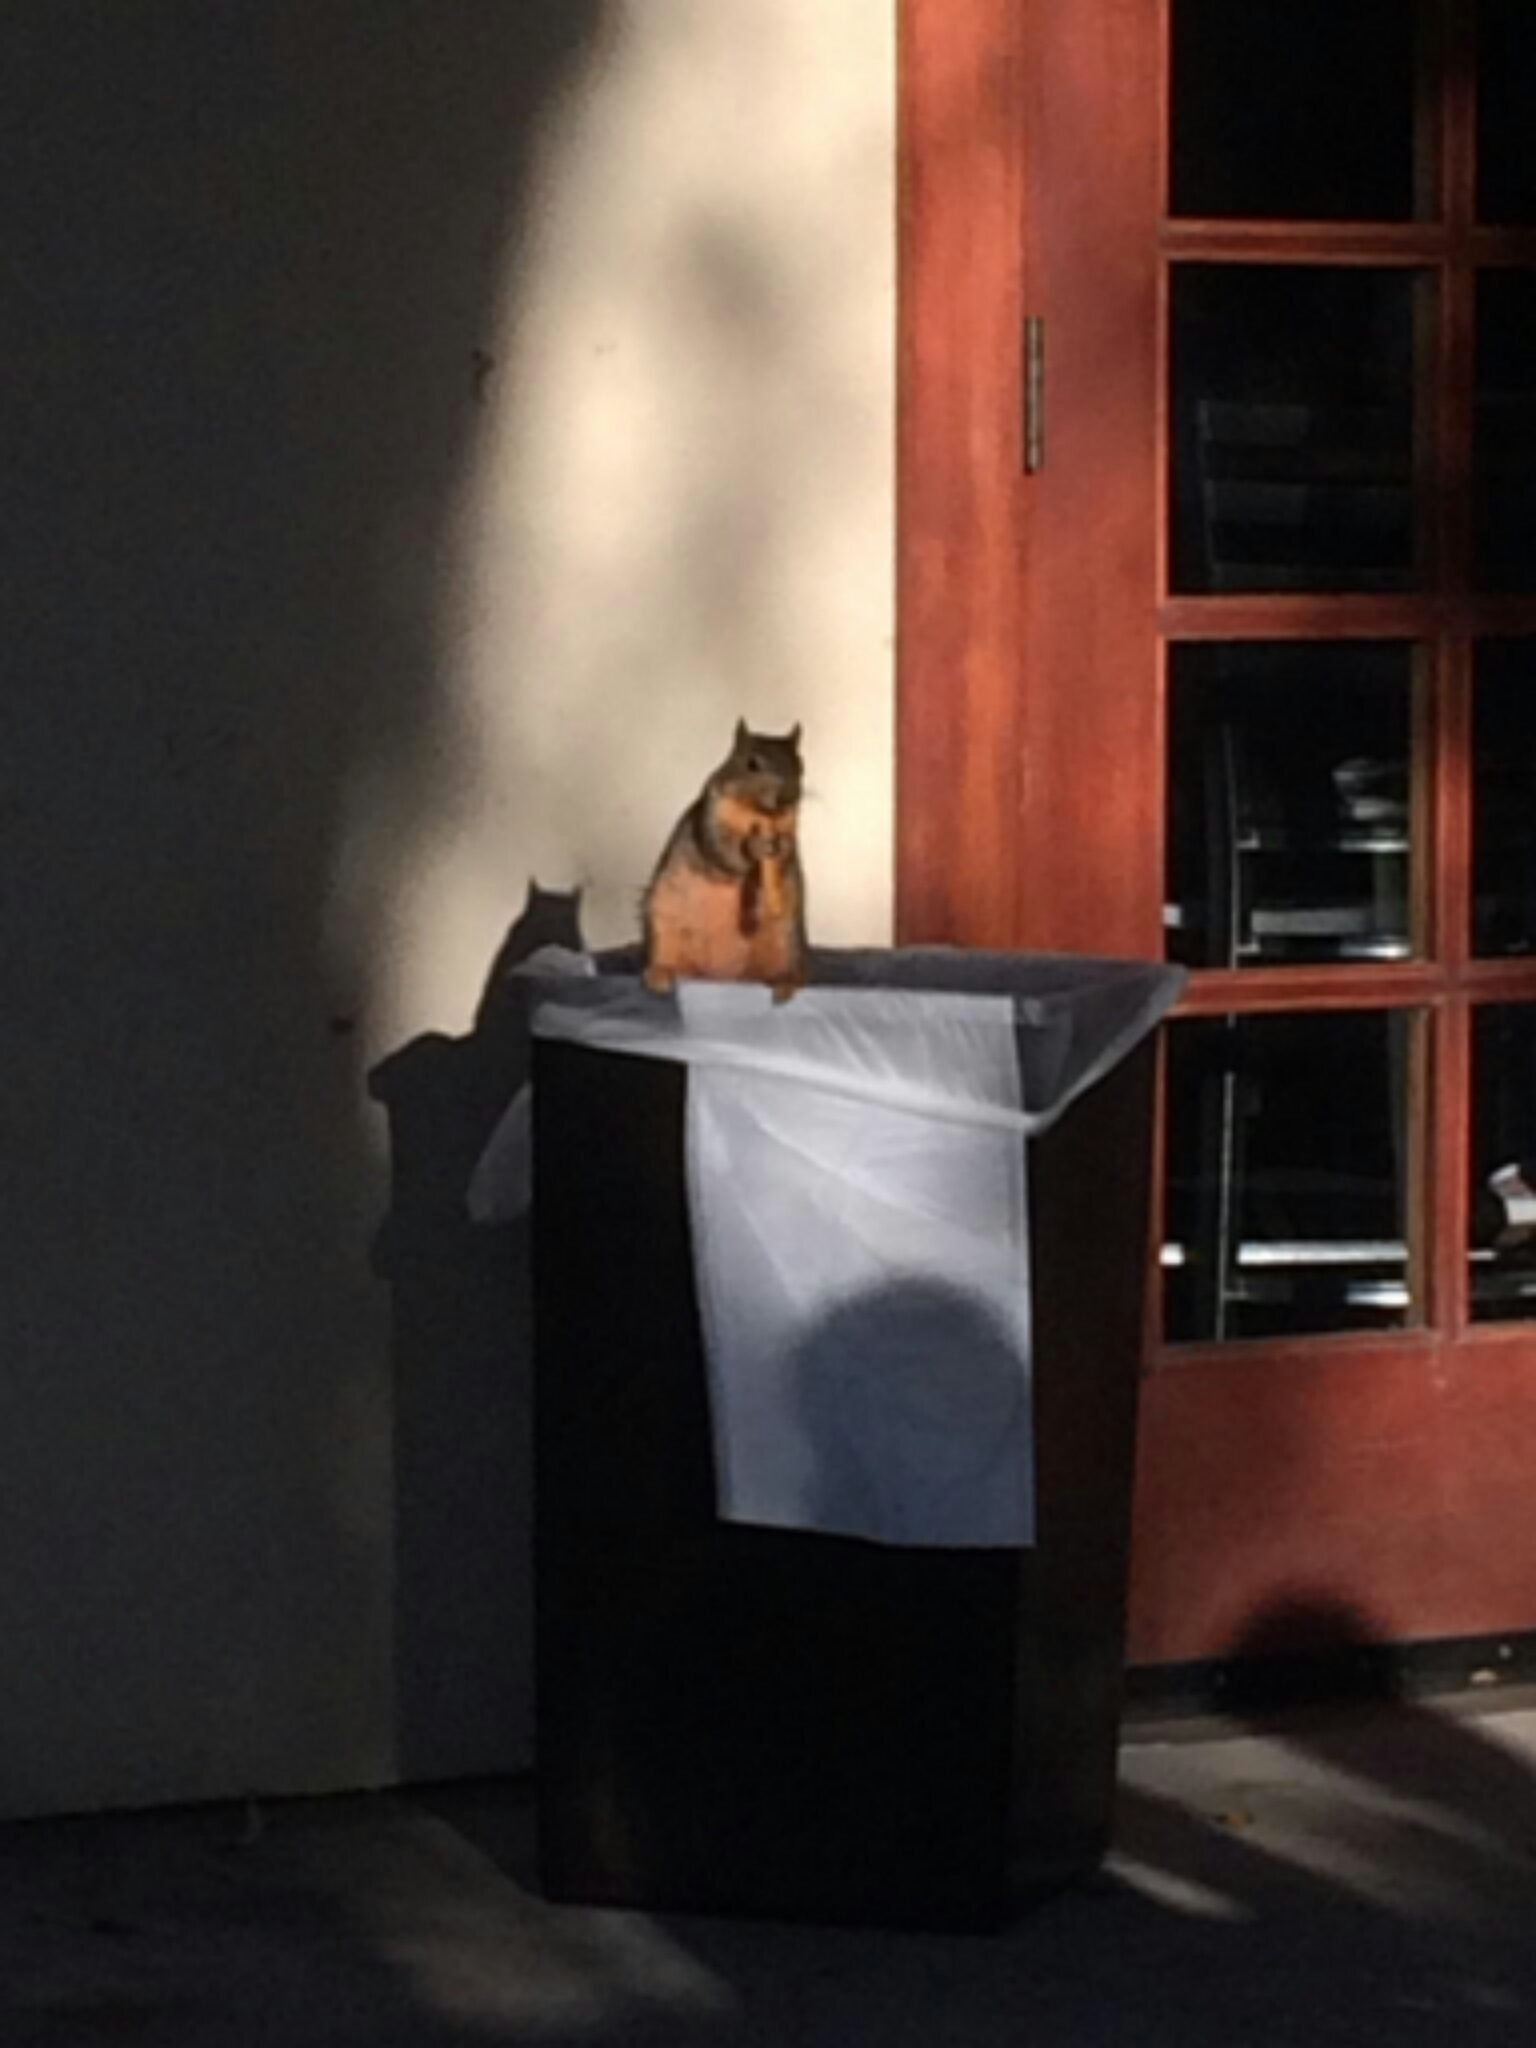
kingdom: Animalia
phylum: Chordata
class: Mammalia
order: Rodentia
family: Sciuridae
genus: Sciurus
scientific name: Sciurus niger
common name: Fox squirrel
